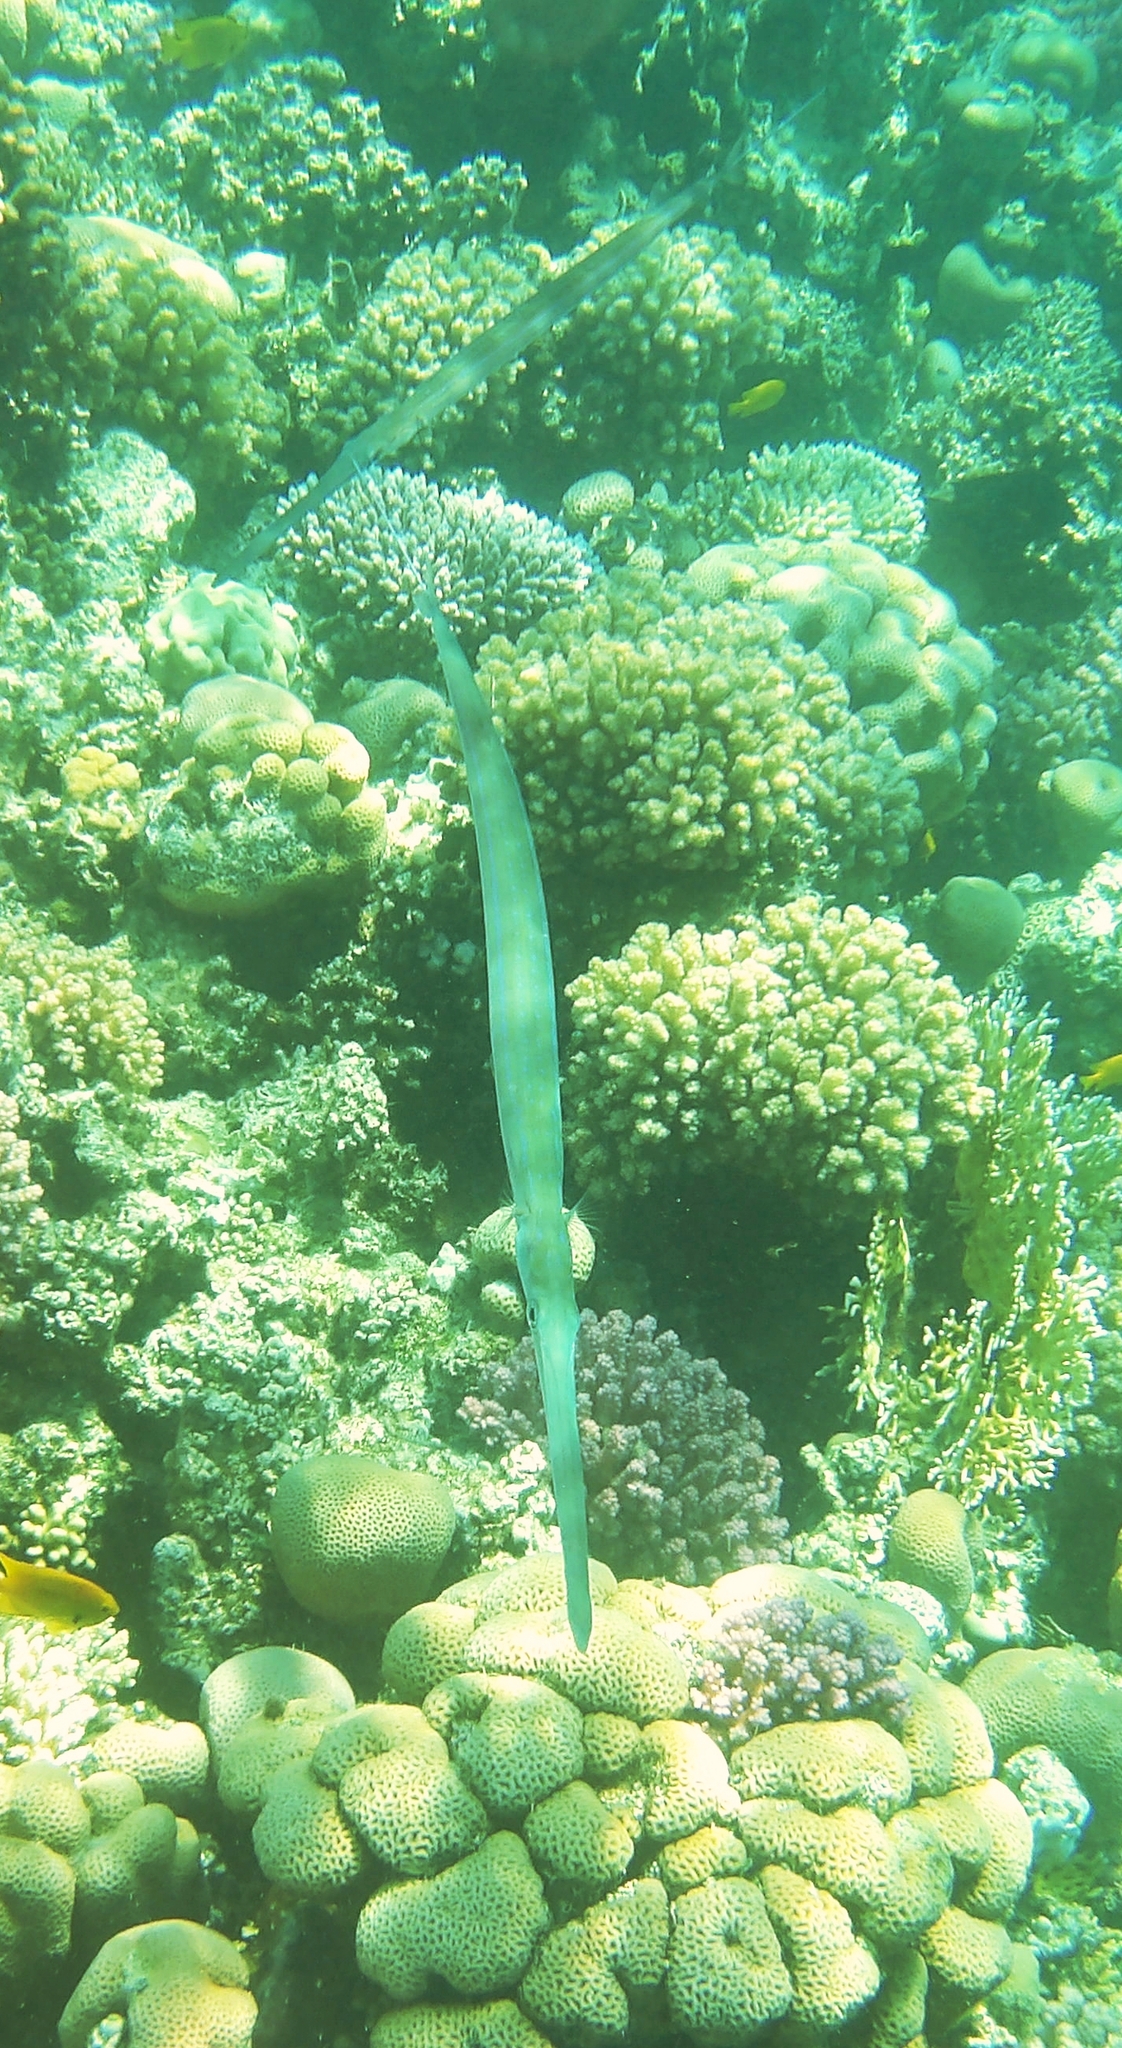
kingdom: Animalia
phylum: Chordata
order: Syngnathiformes
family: Fistulariidae
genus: Fistularia
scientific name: Fistularia commersonii
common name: Bluespotted cornetfish
